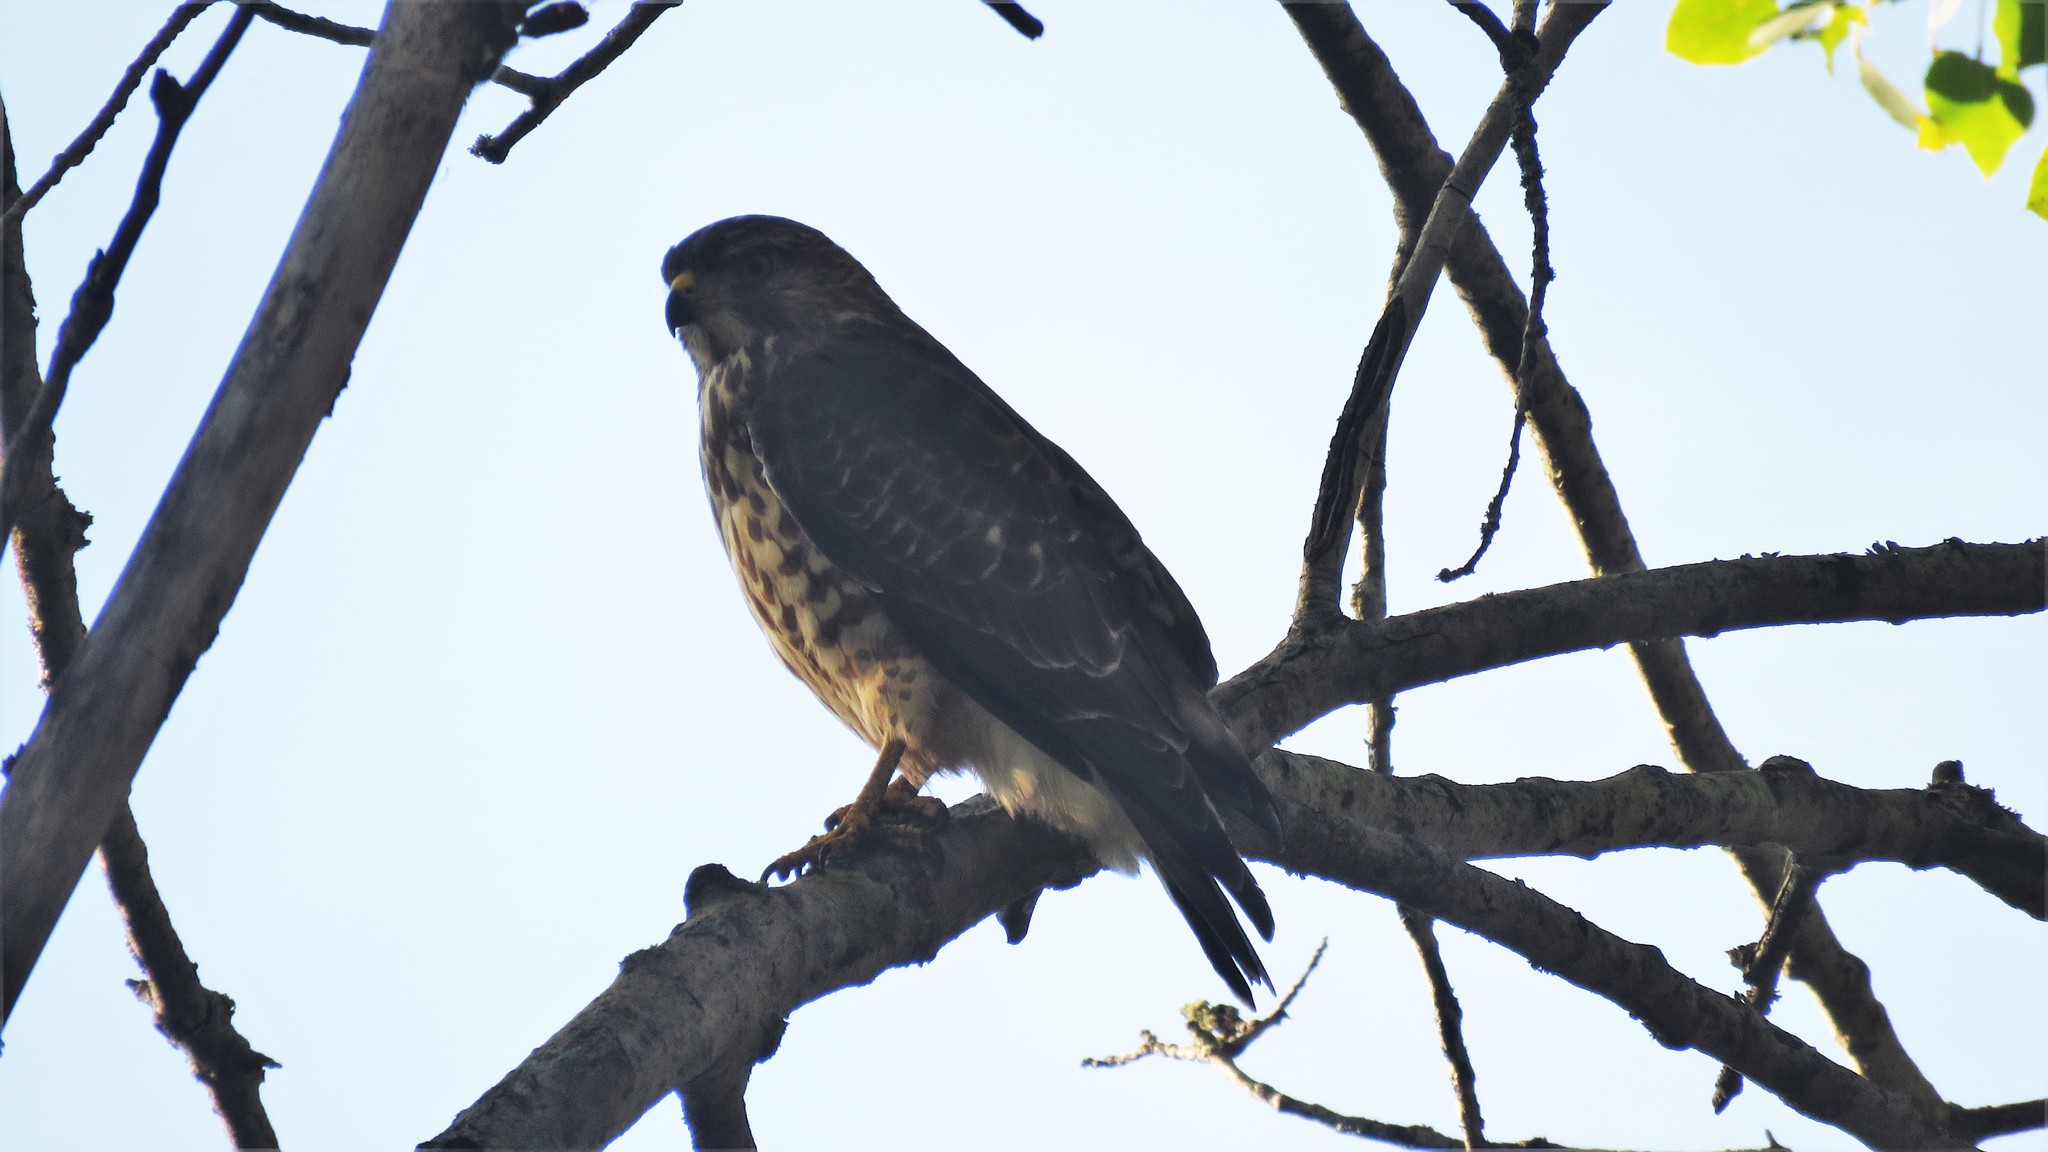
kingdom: Animalia
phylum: Chordata
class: Aves
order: Accipitriformes
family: Accipitridae
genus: Buteo
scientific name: Buteo platypterus
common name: Broad-winged hawk
